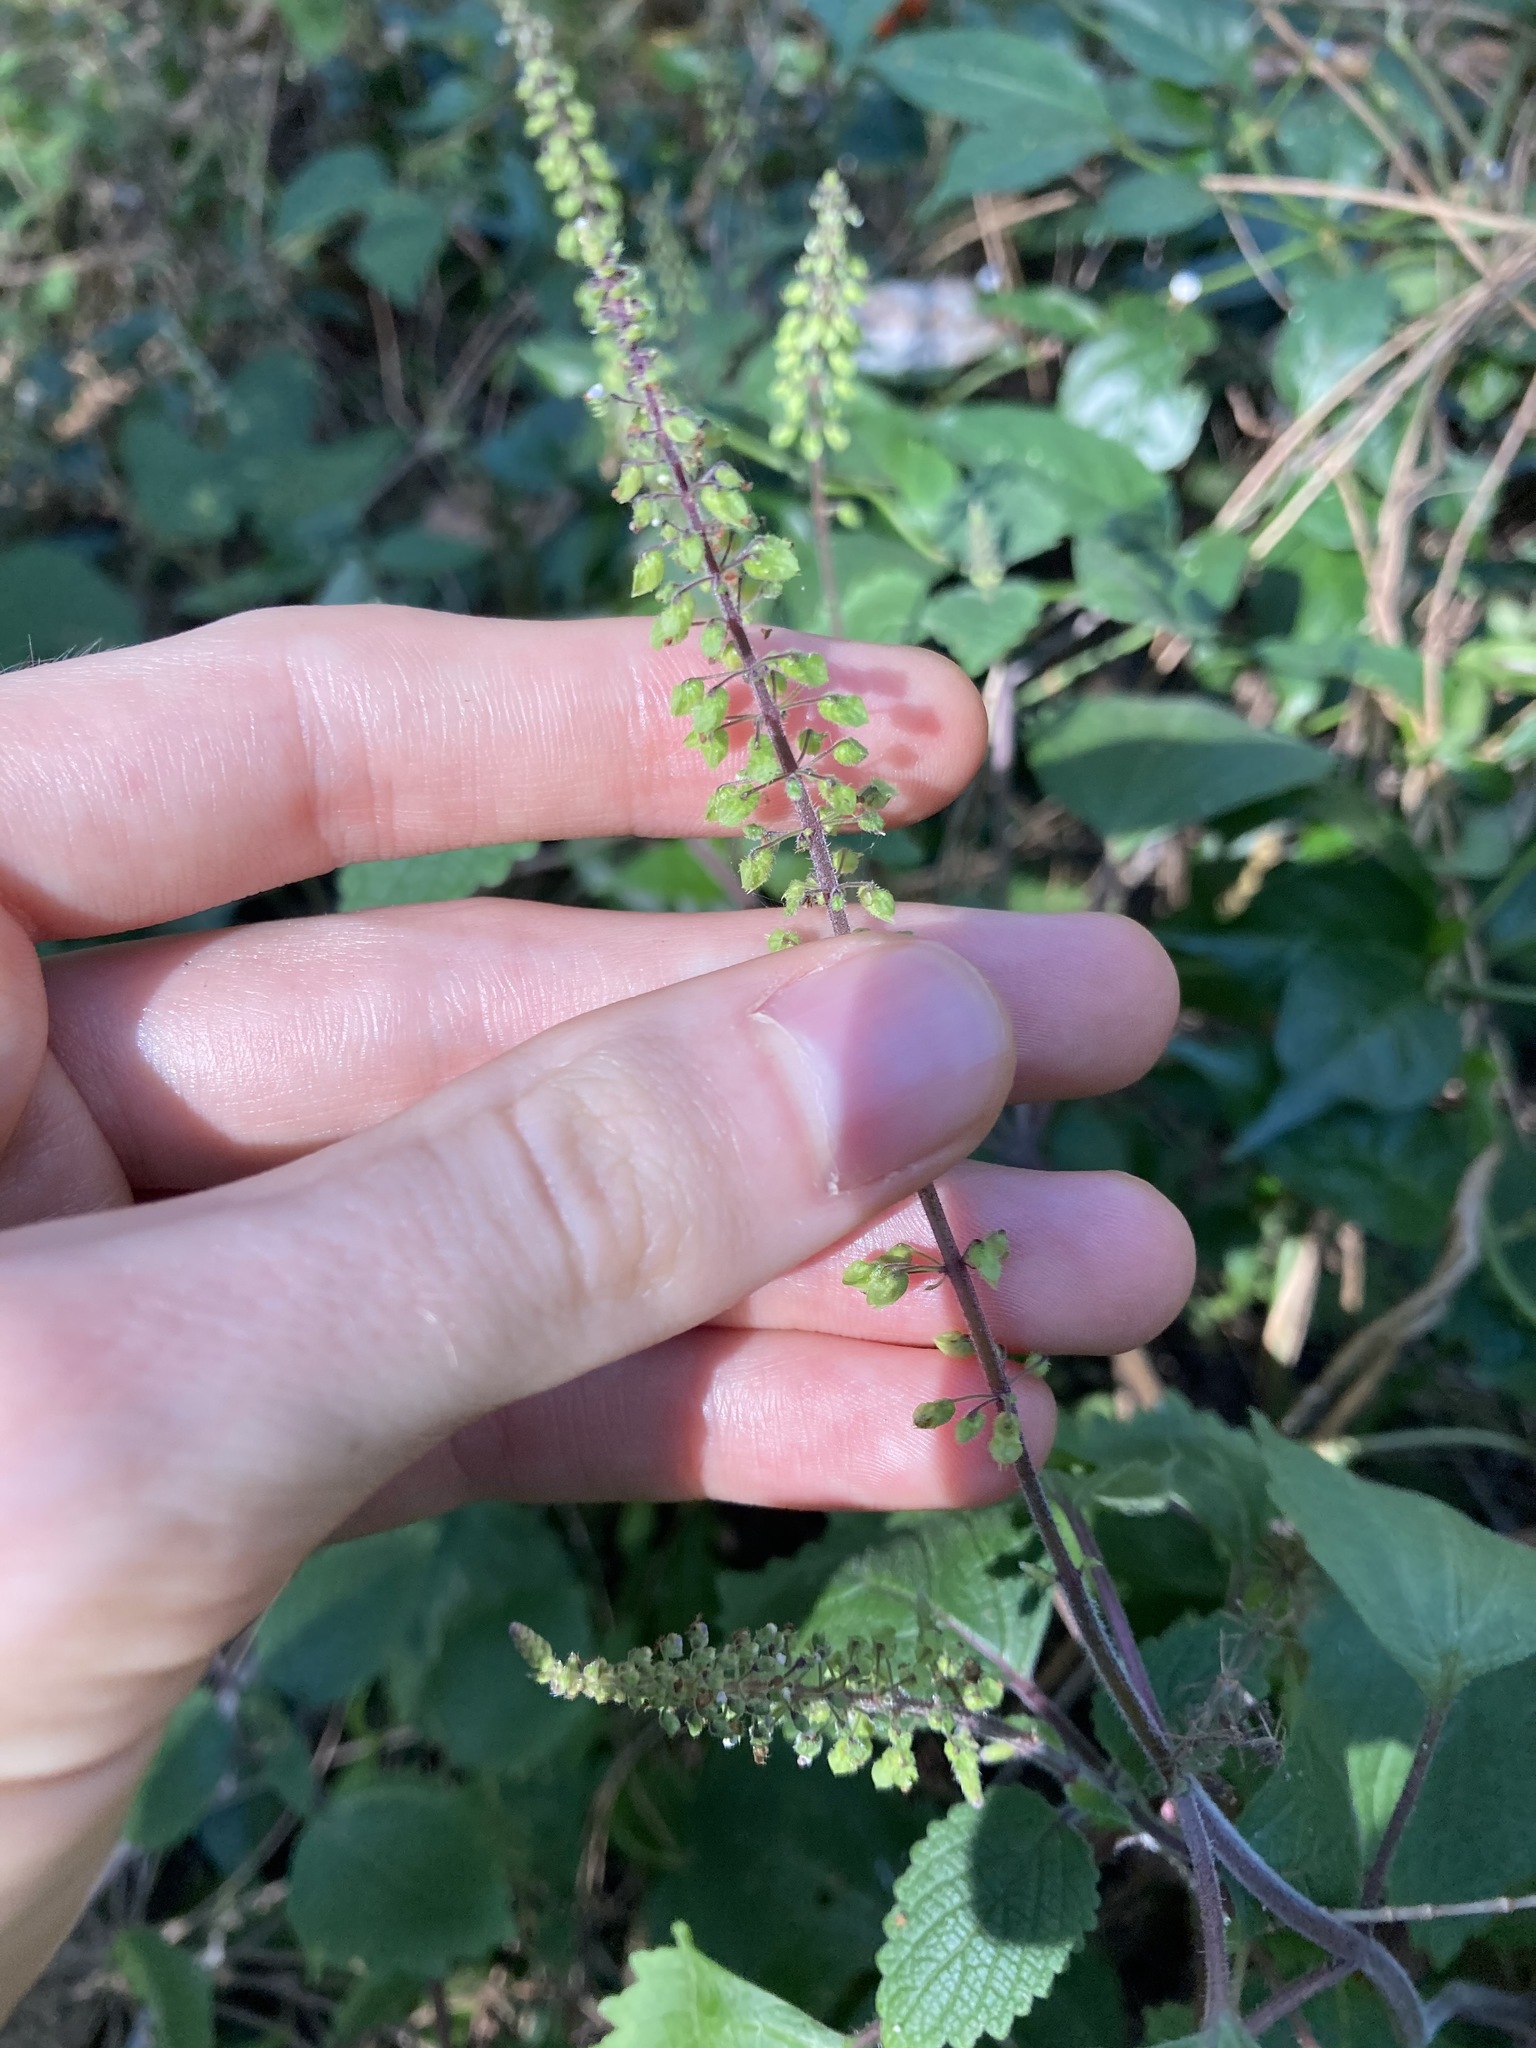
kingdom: Plantae
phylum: Tracheophyta
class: Magnoliopsida
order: Lamiales
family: Lamiaceae
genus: Coleus
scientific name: Coleus australis
